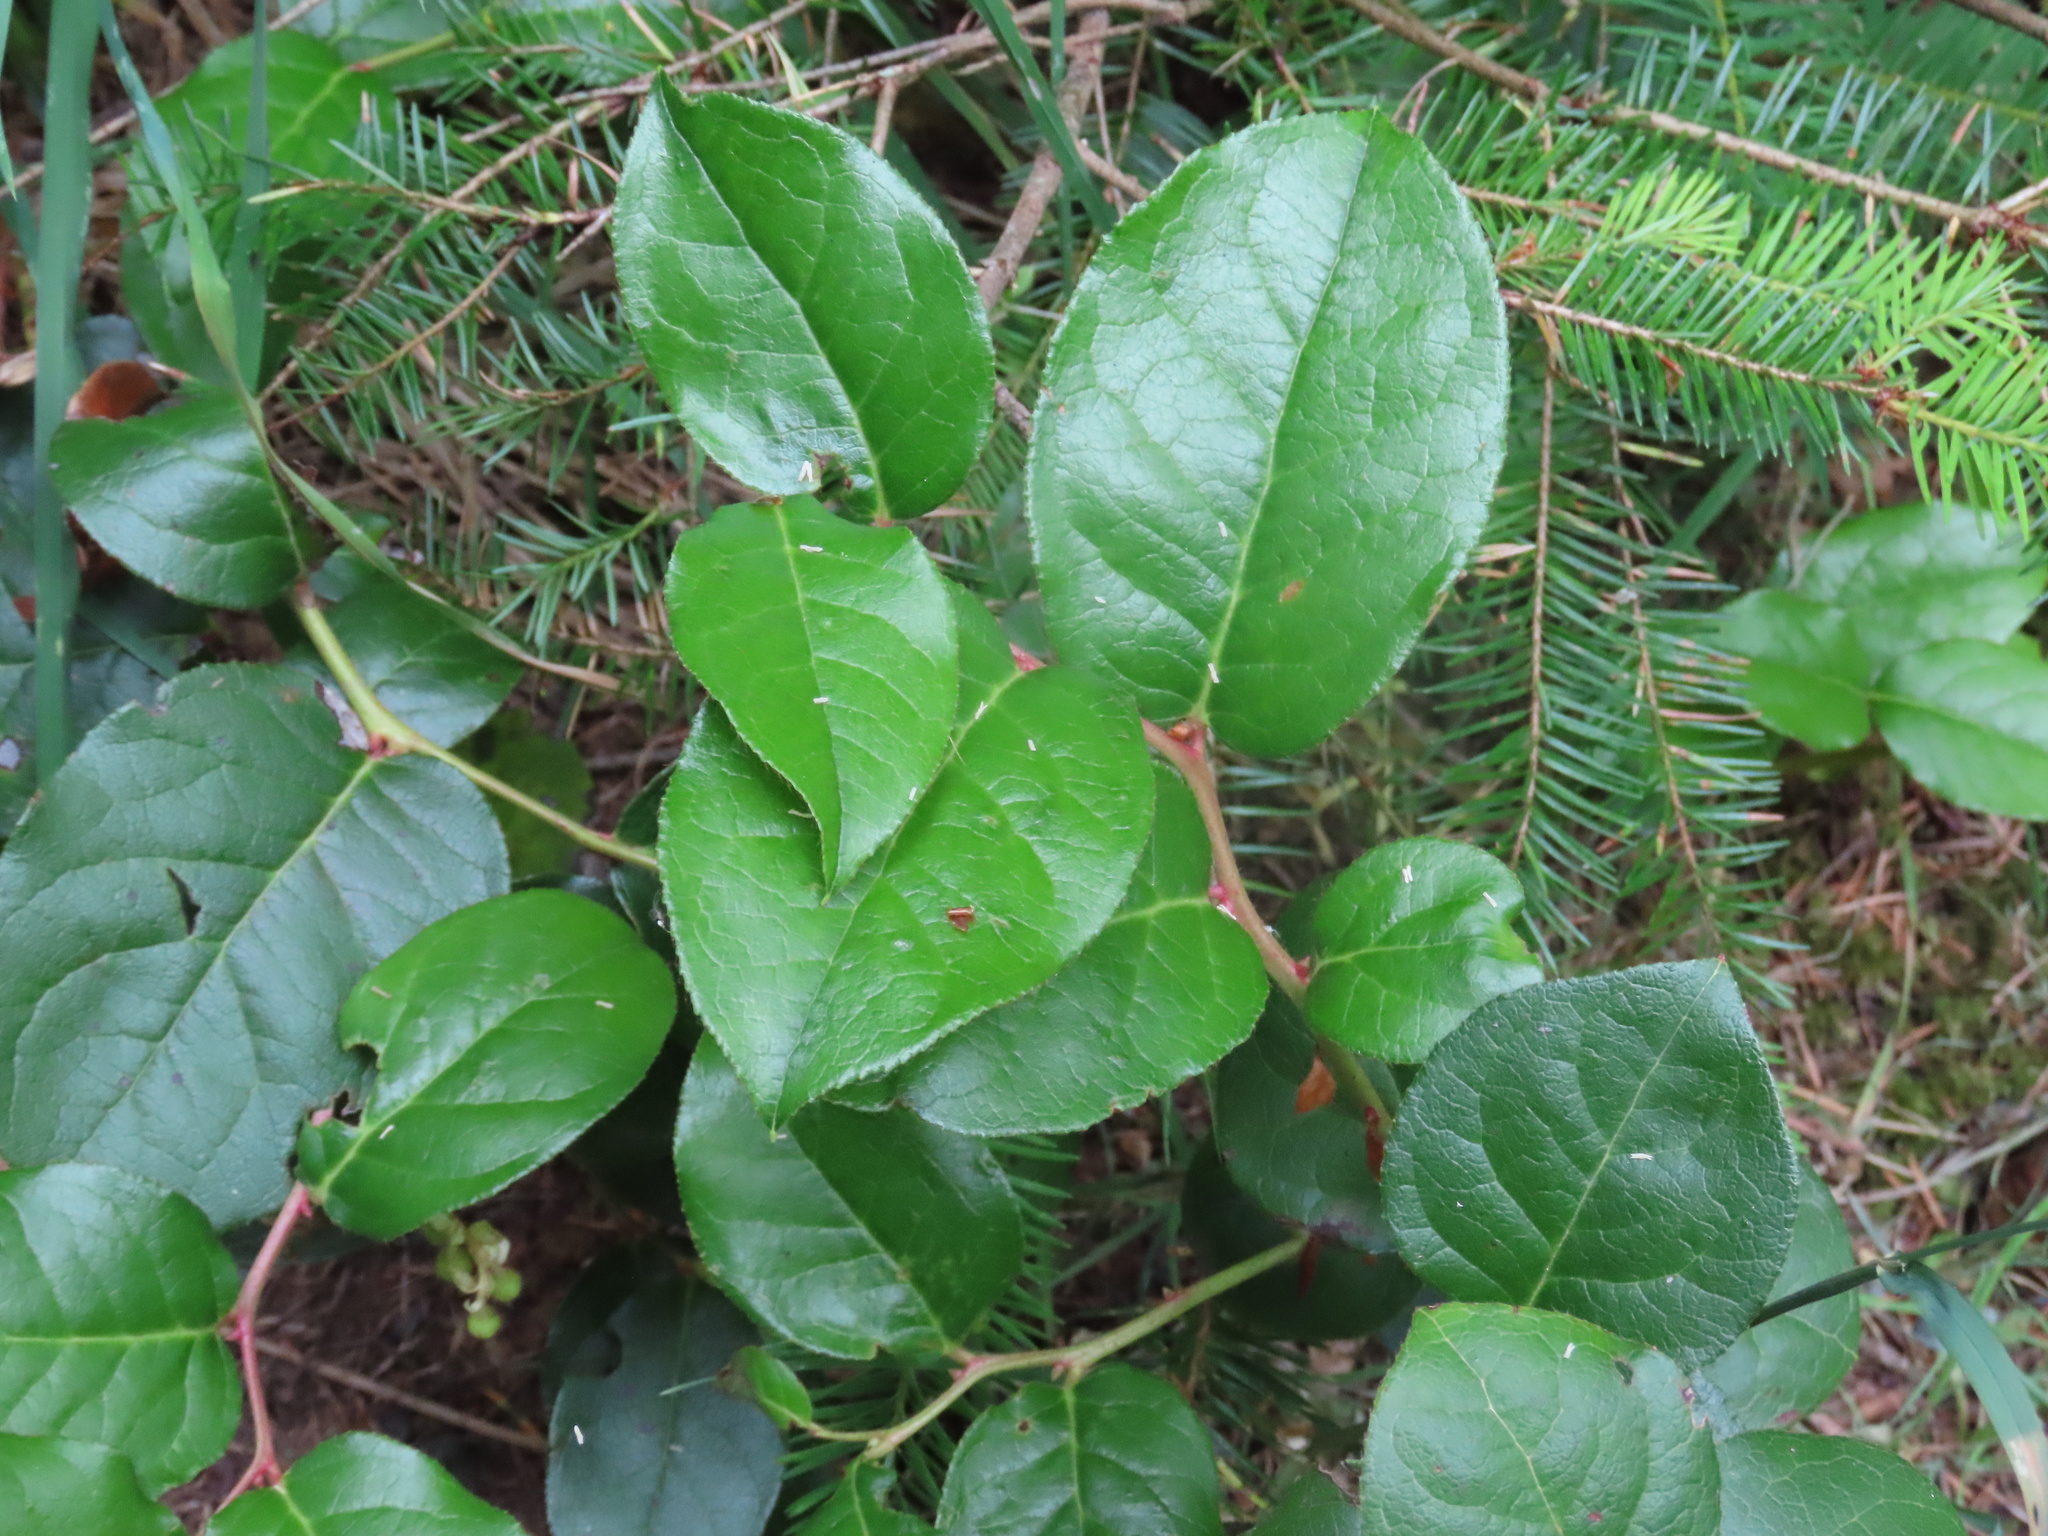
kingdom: Plantae
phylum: Tracheophyta
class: Magnoliopsida
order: Ericales
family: Ericaceae
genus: Gaultheria
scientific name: Gaultheria shallon
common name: Shallon
